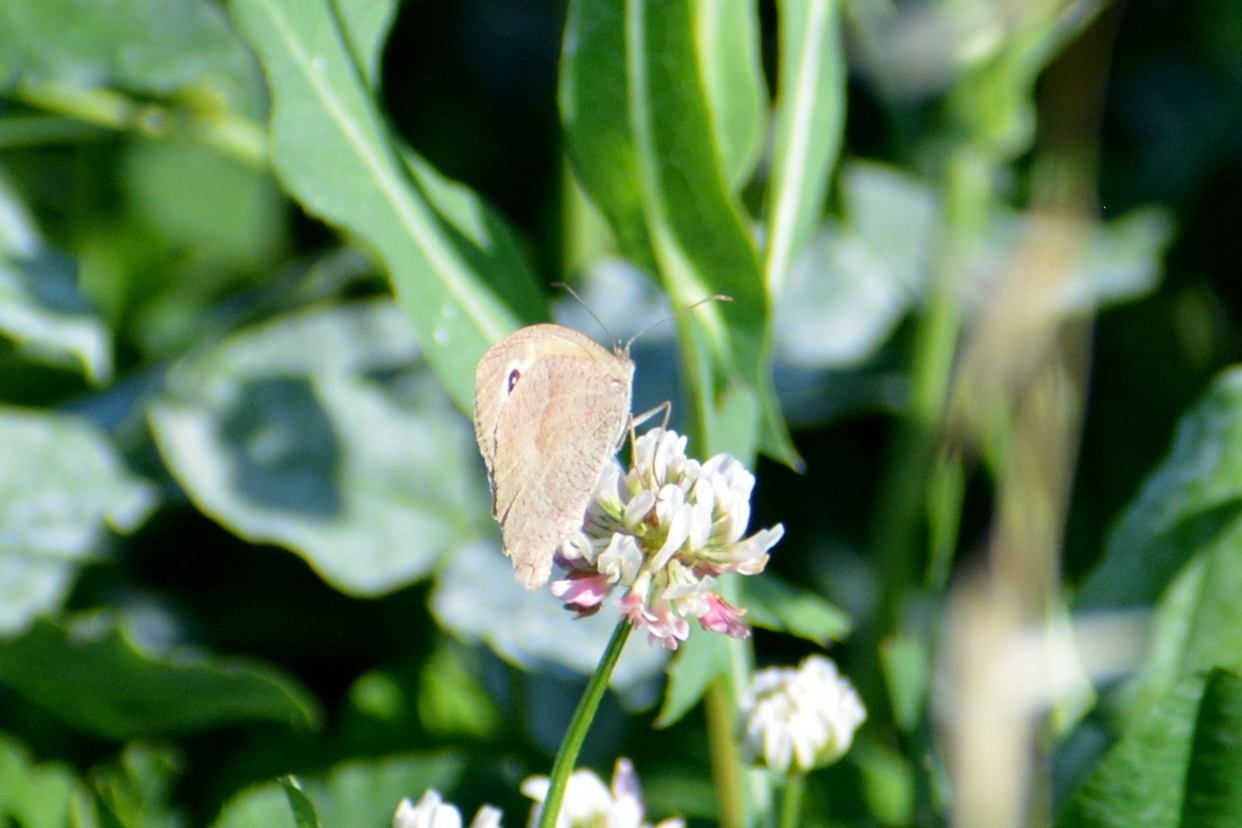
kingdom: Animalia
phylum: Arthropoda
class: Insecta
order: Lepidoptera
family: Nymphalidae
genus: Maniola
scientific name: Maniola jurtina
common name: Meadow brown
